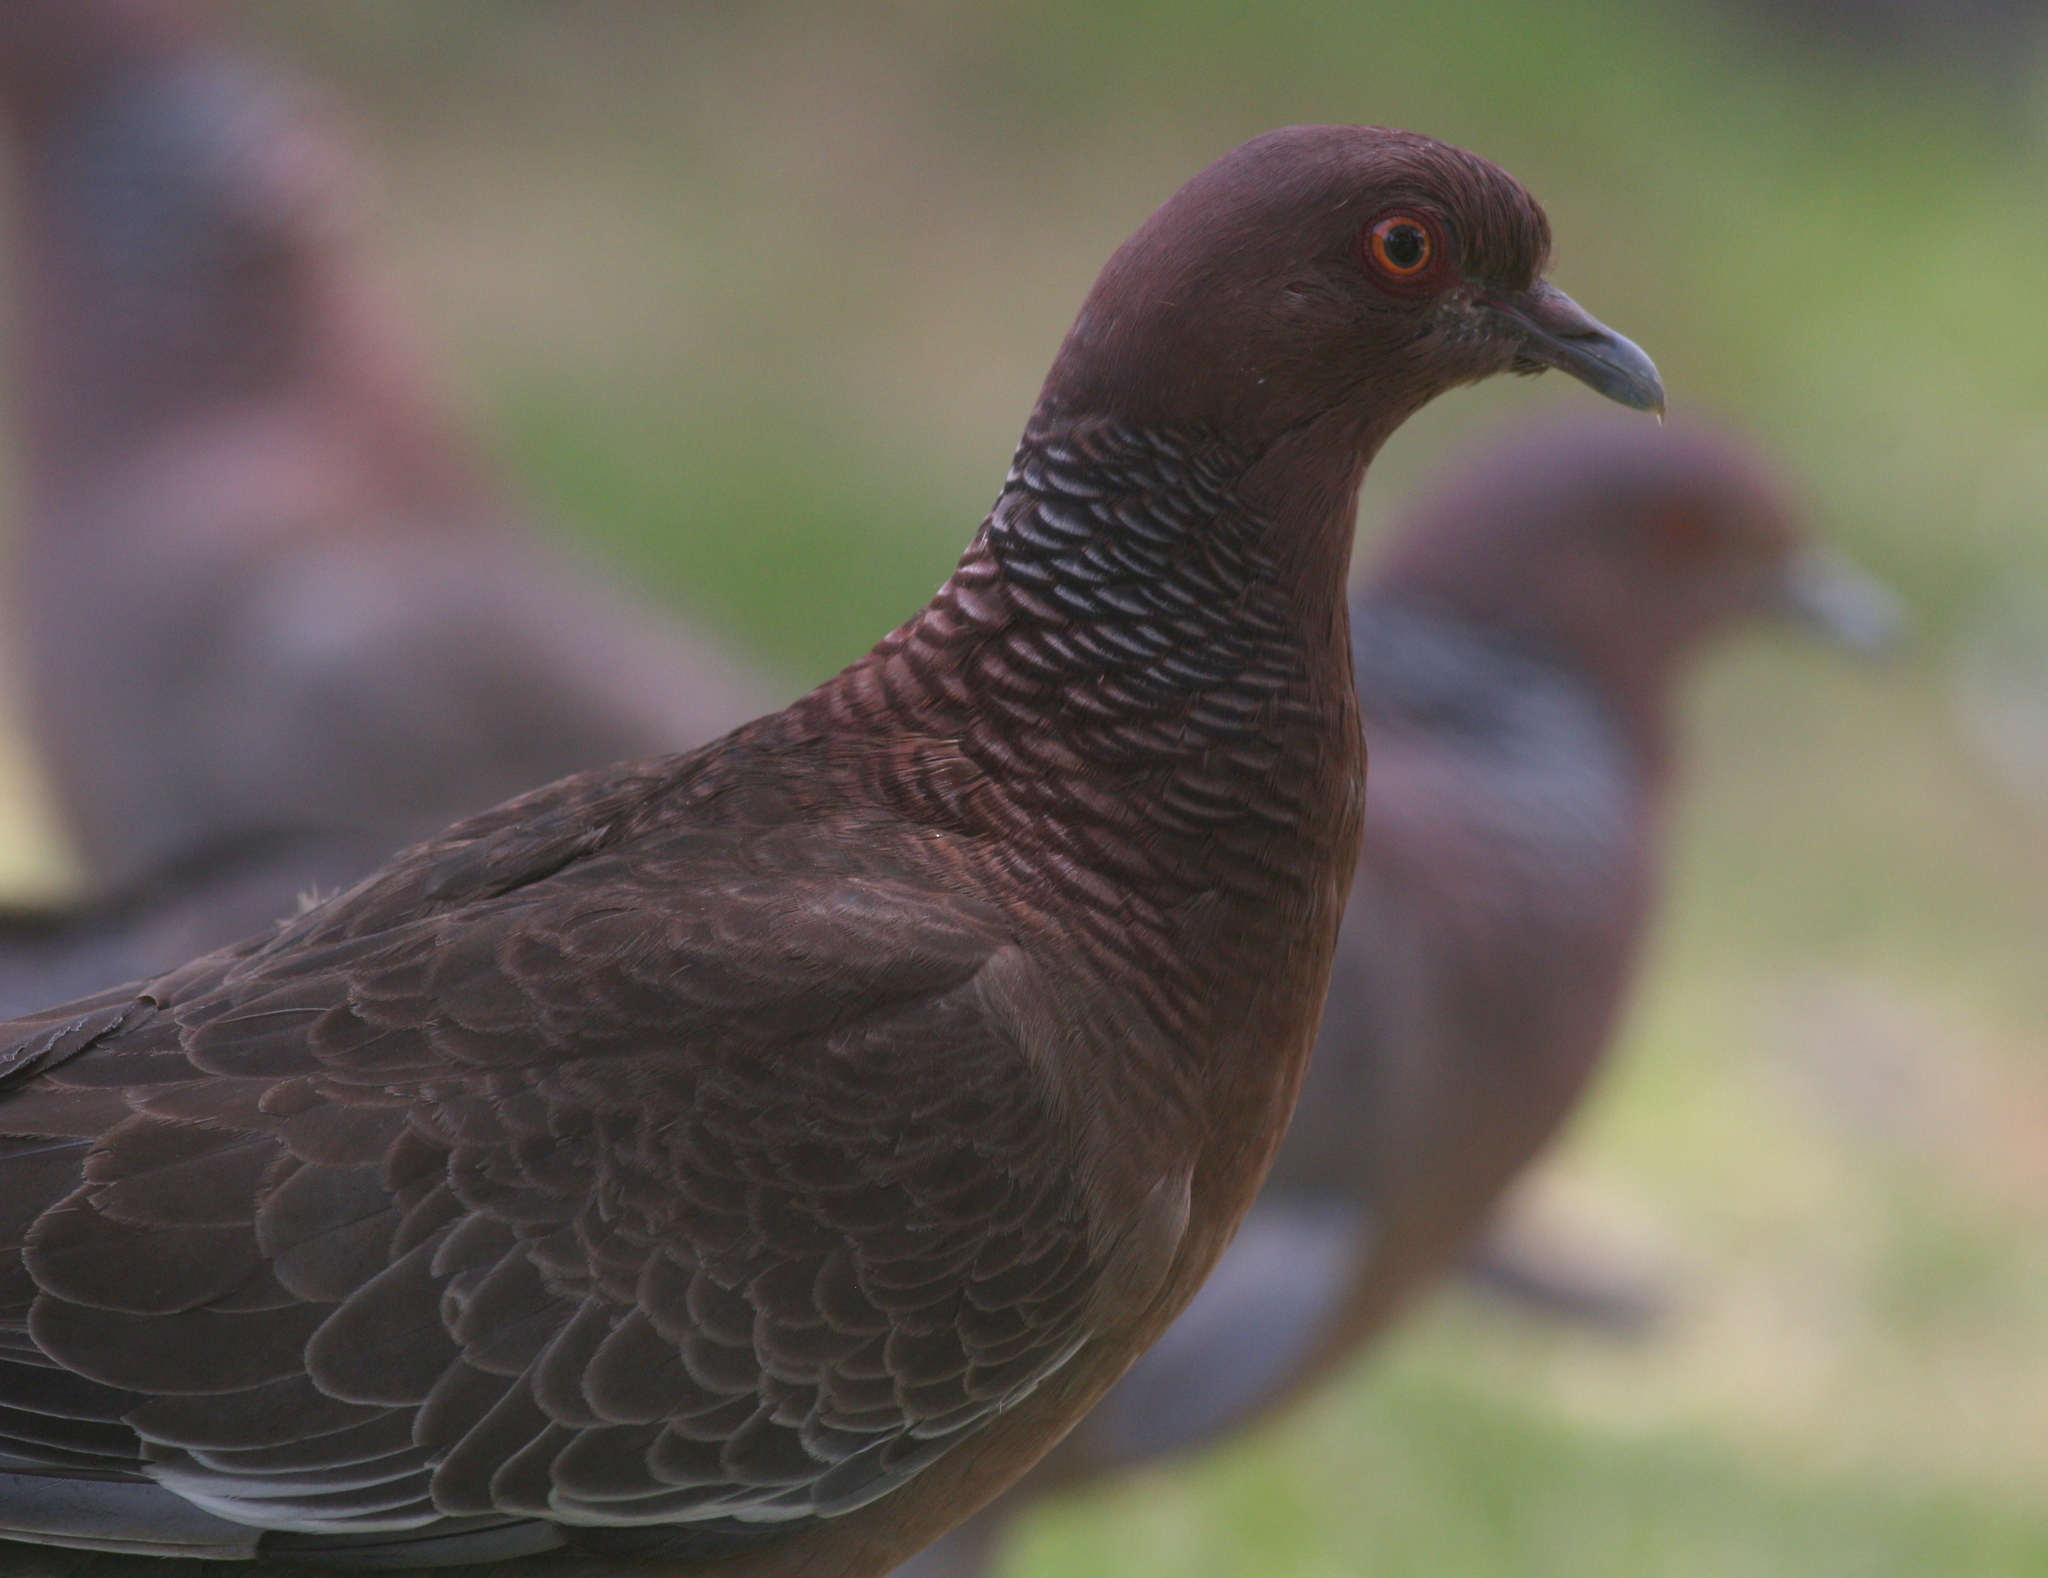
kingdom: Animalia
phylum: Chordata
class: Aves
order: Columbiformes
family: Columbidae
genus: Patagioenas
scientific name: Patagioenas picazuro
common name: Picazuro pigeon
